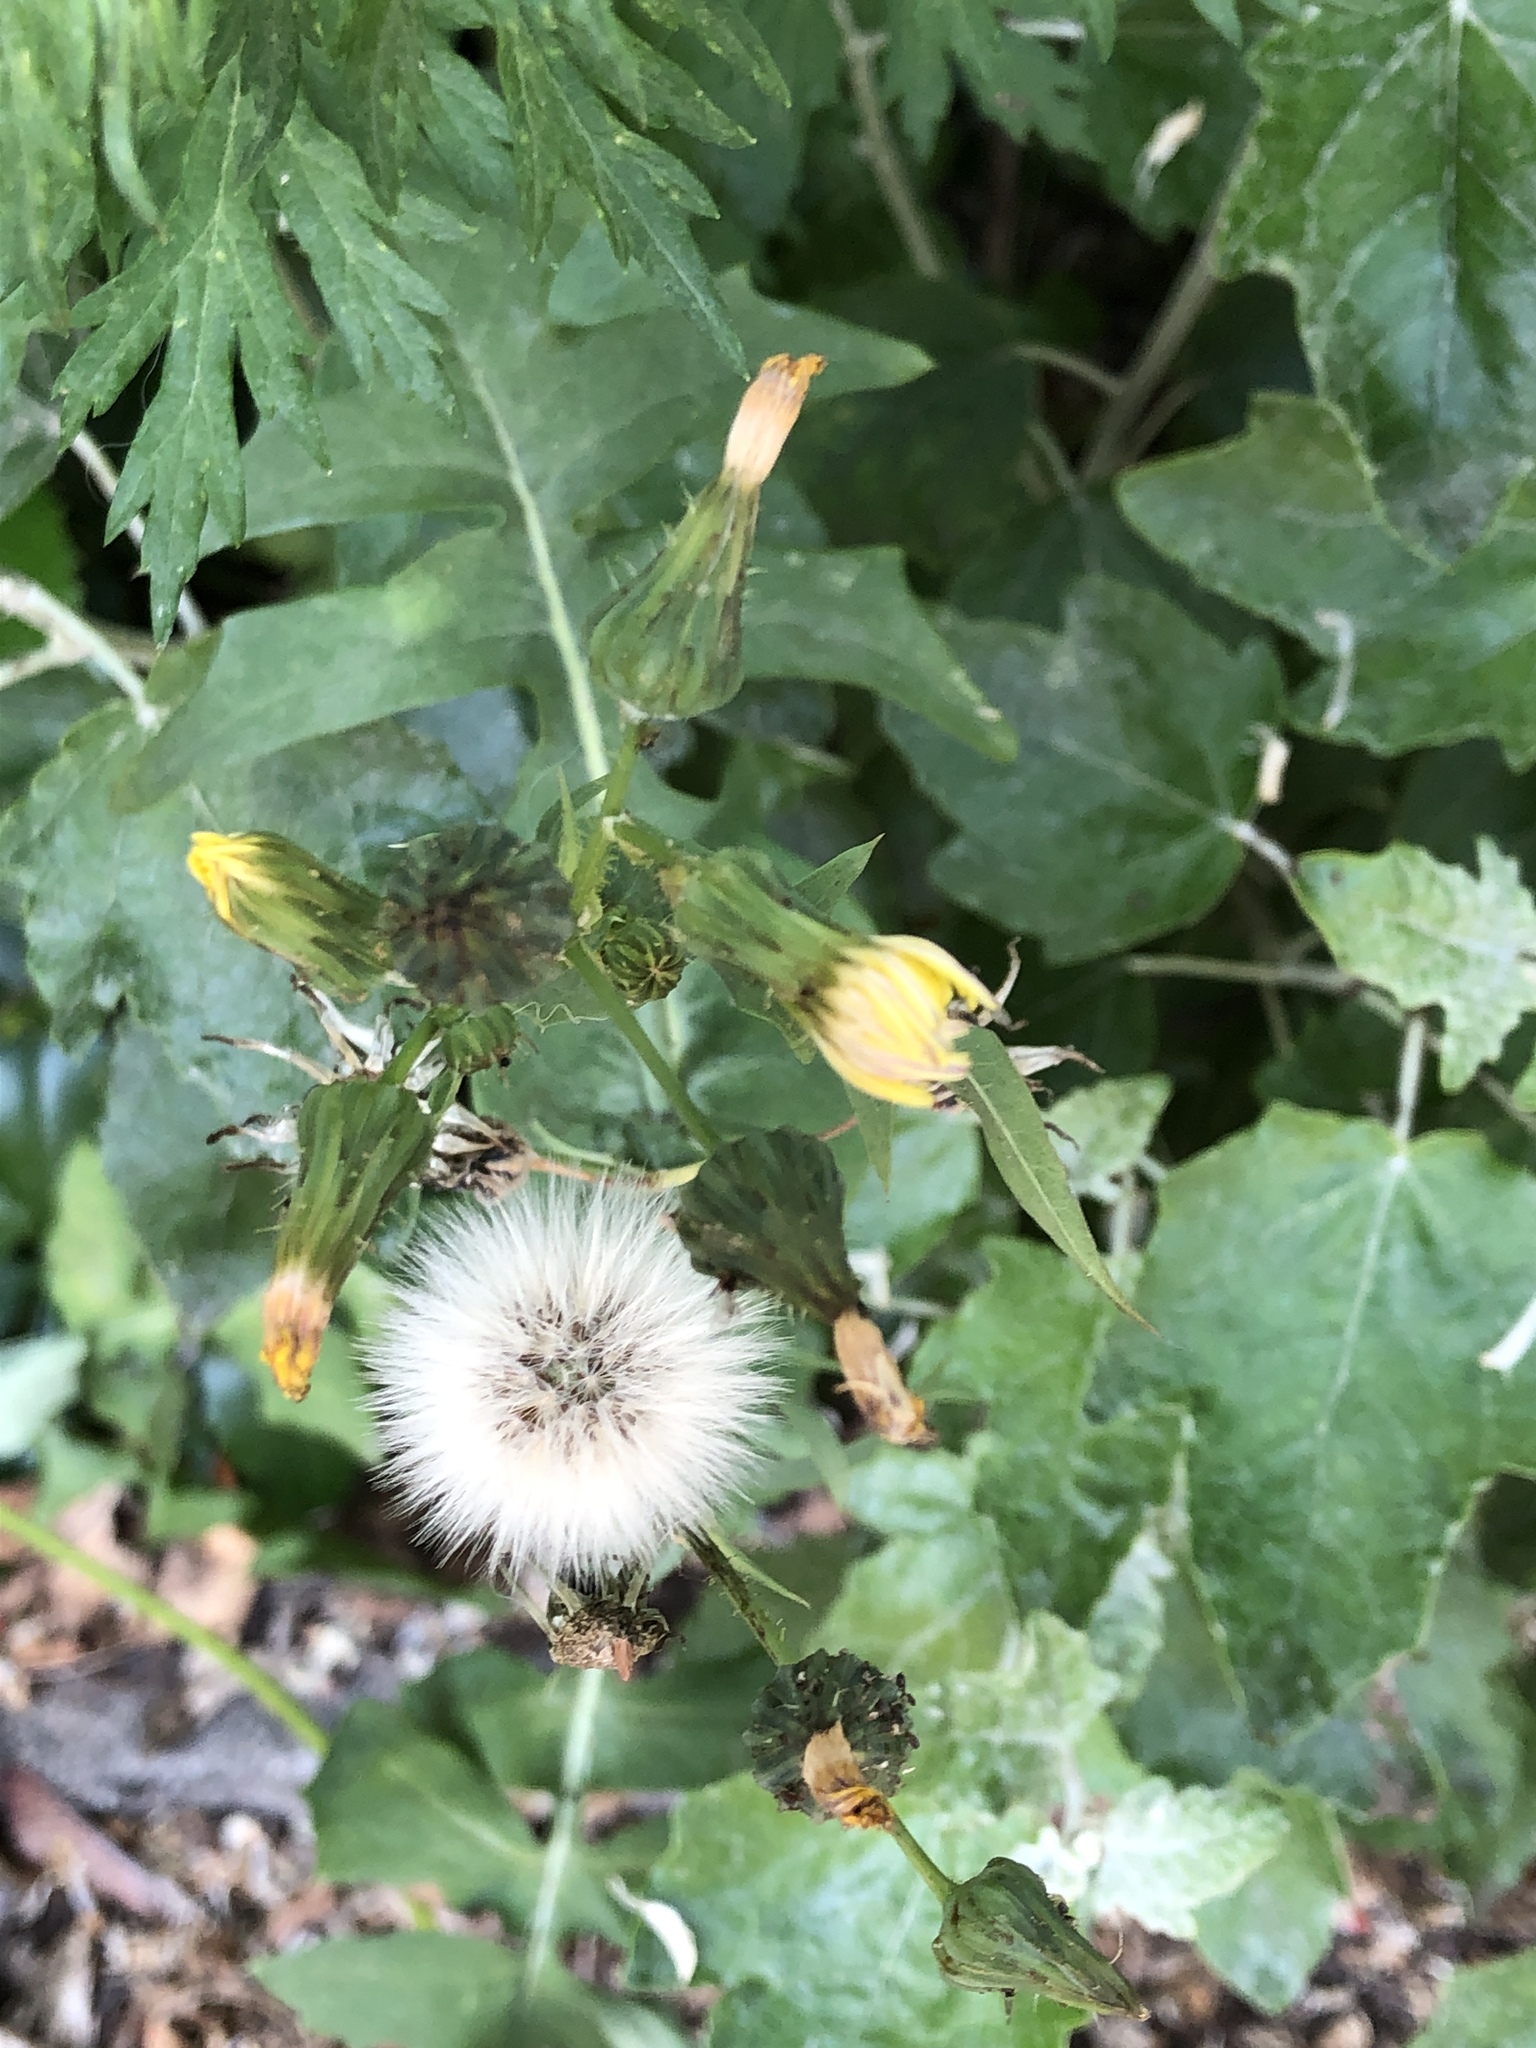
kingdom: Plantae
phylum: Tracheophyta
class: Magnoliopsida
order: Asterales
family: Asteraceae
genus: Sonchus
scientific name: Sonchus oleraceus
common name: Common sowthistle
